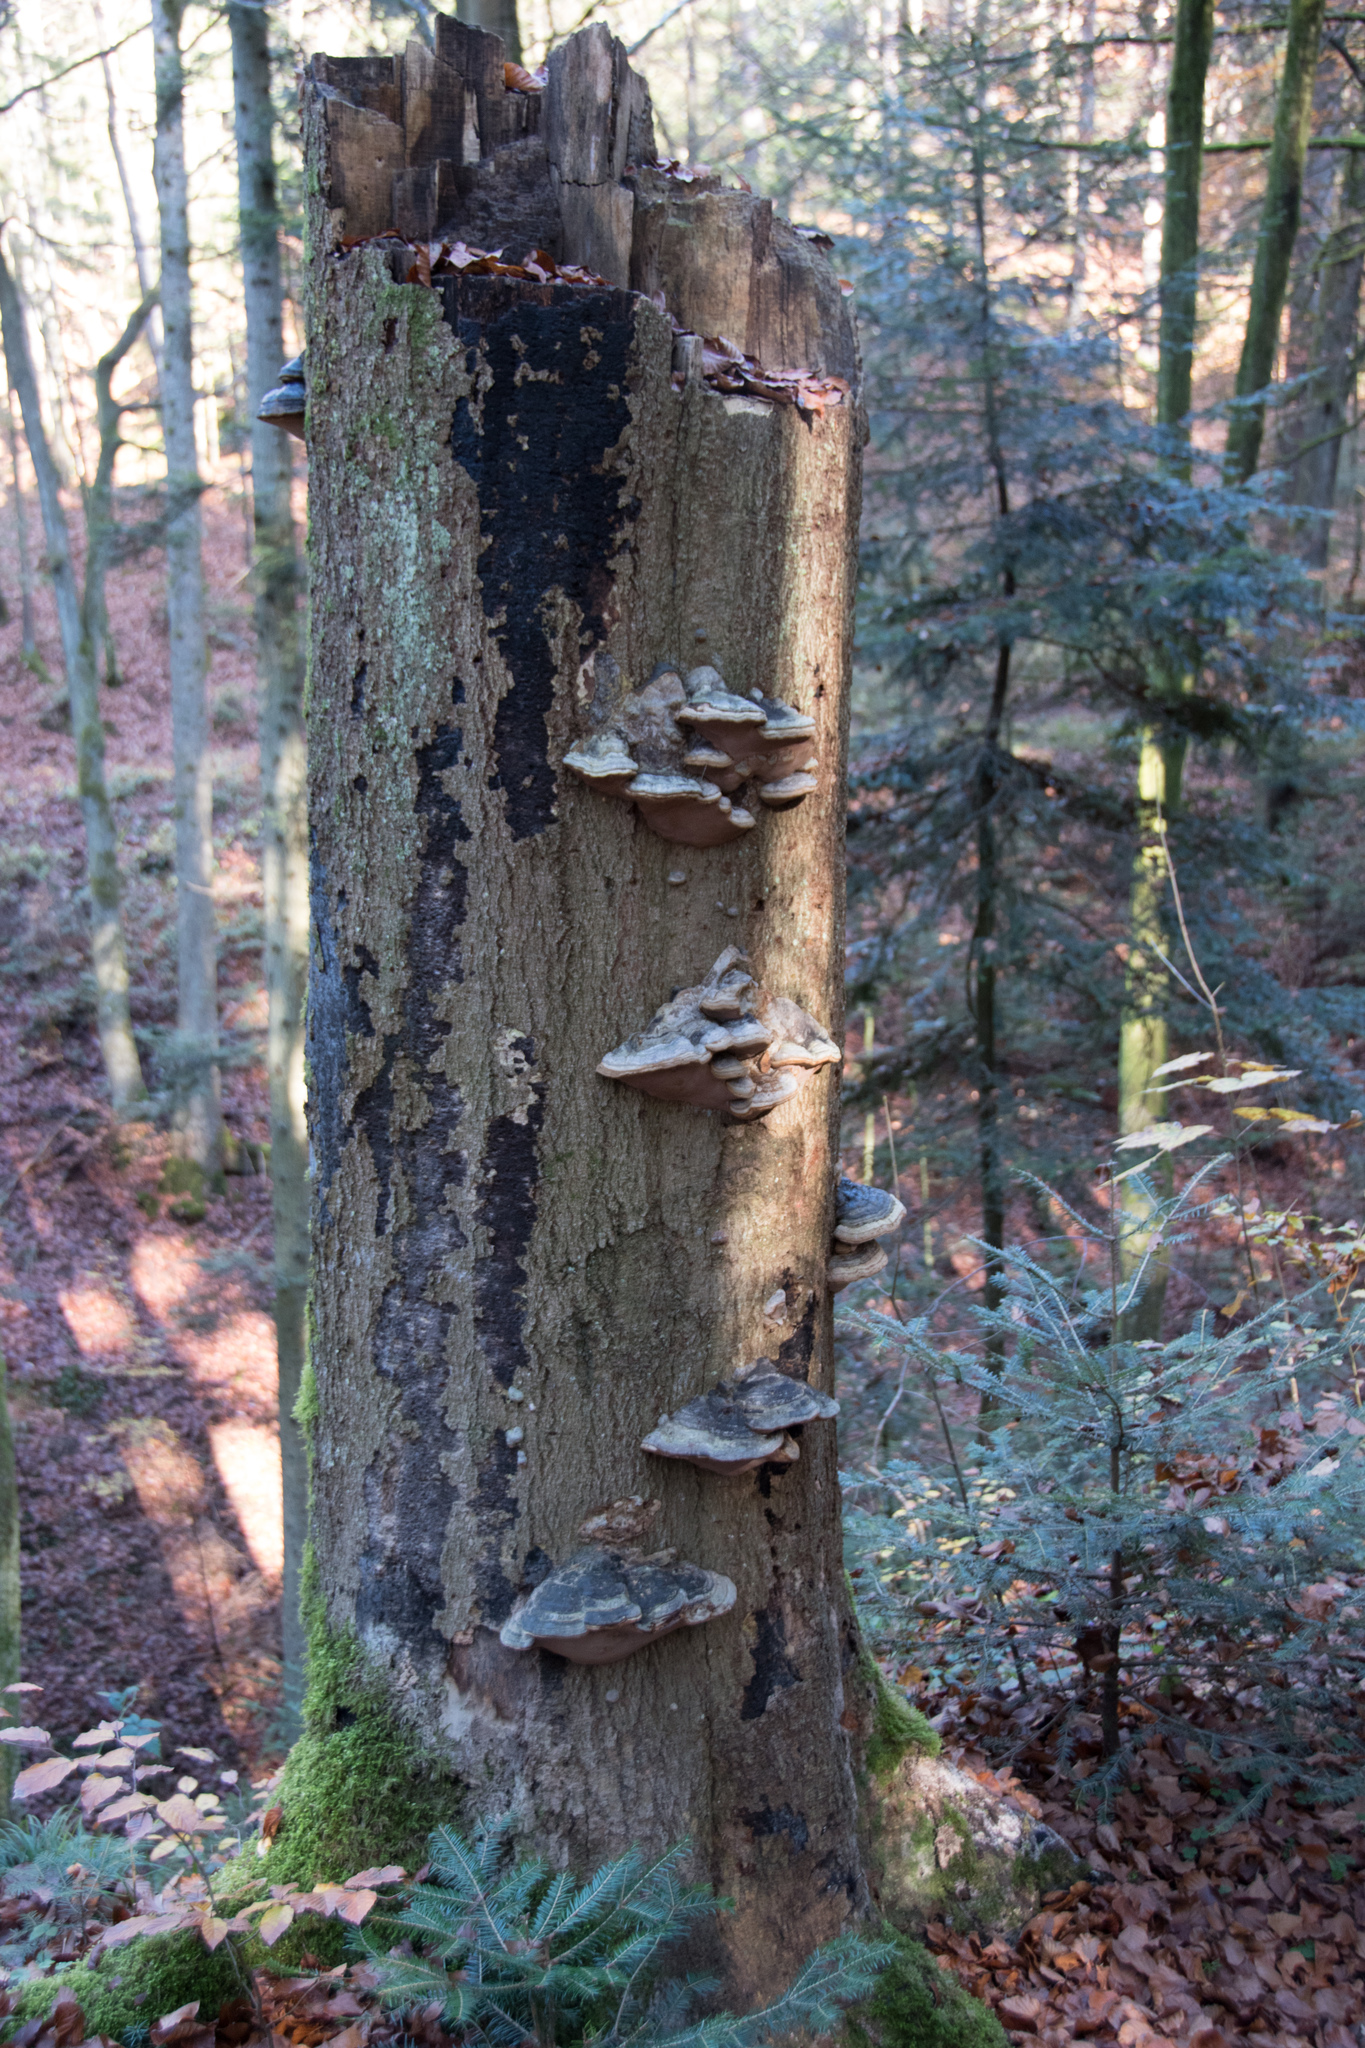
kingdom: Fungi
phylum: Basidiomycota
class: Agaricomycetes
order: Polyporales
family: Polyporaceae
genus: Fomes
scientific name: Fomes fomentarius
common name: Hoof fungus
